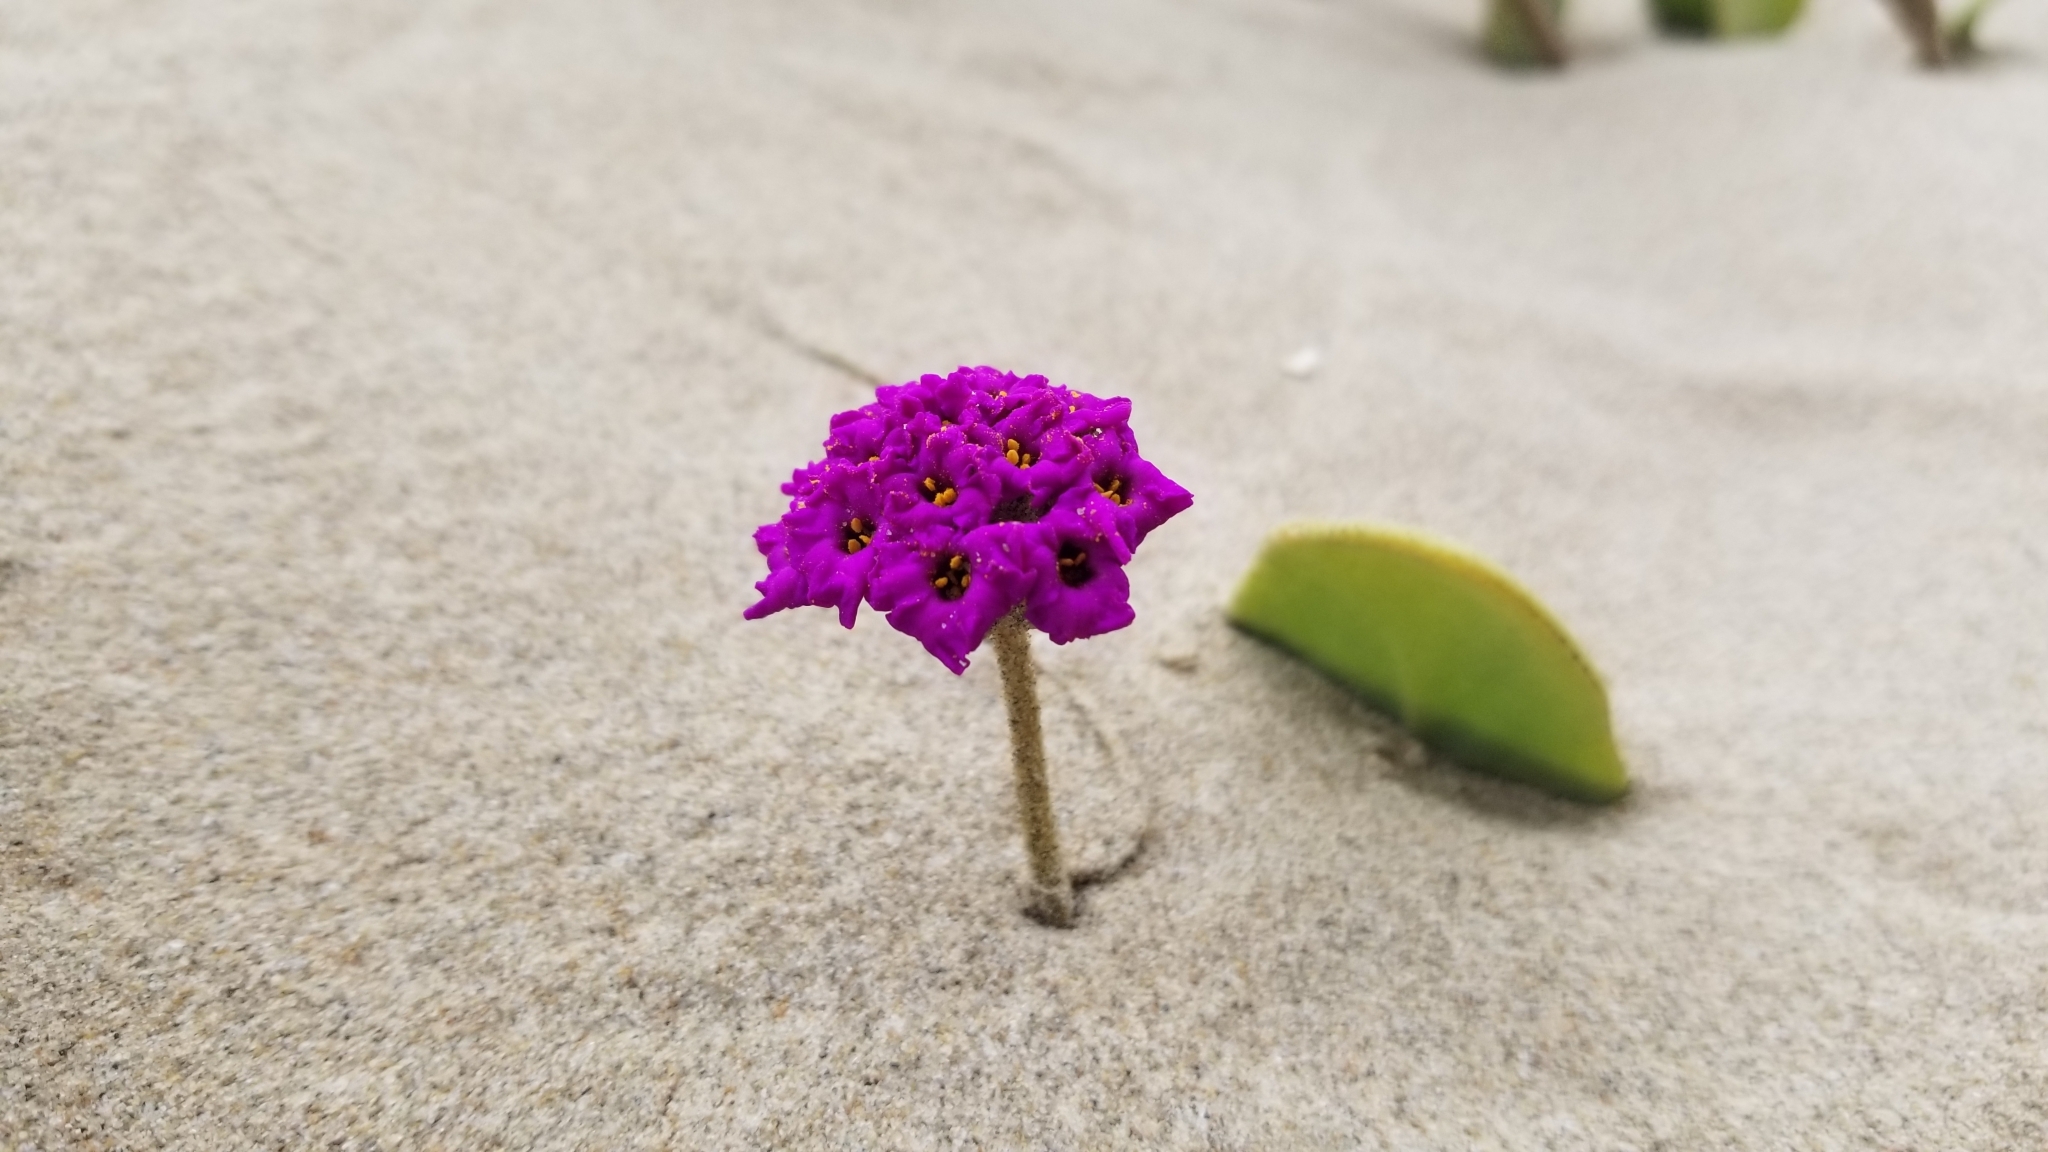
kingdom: Plantae
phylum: Tracheophyta
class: Magnoliopsida
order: Caryophyllales
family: Nyctaginaceae
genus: Abronia
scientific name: Abronia maritima
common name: Red sand-verbena
